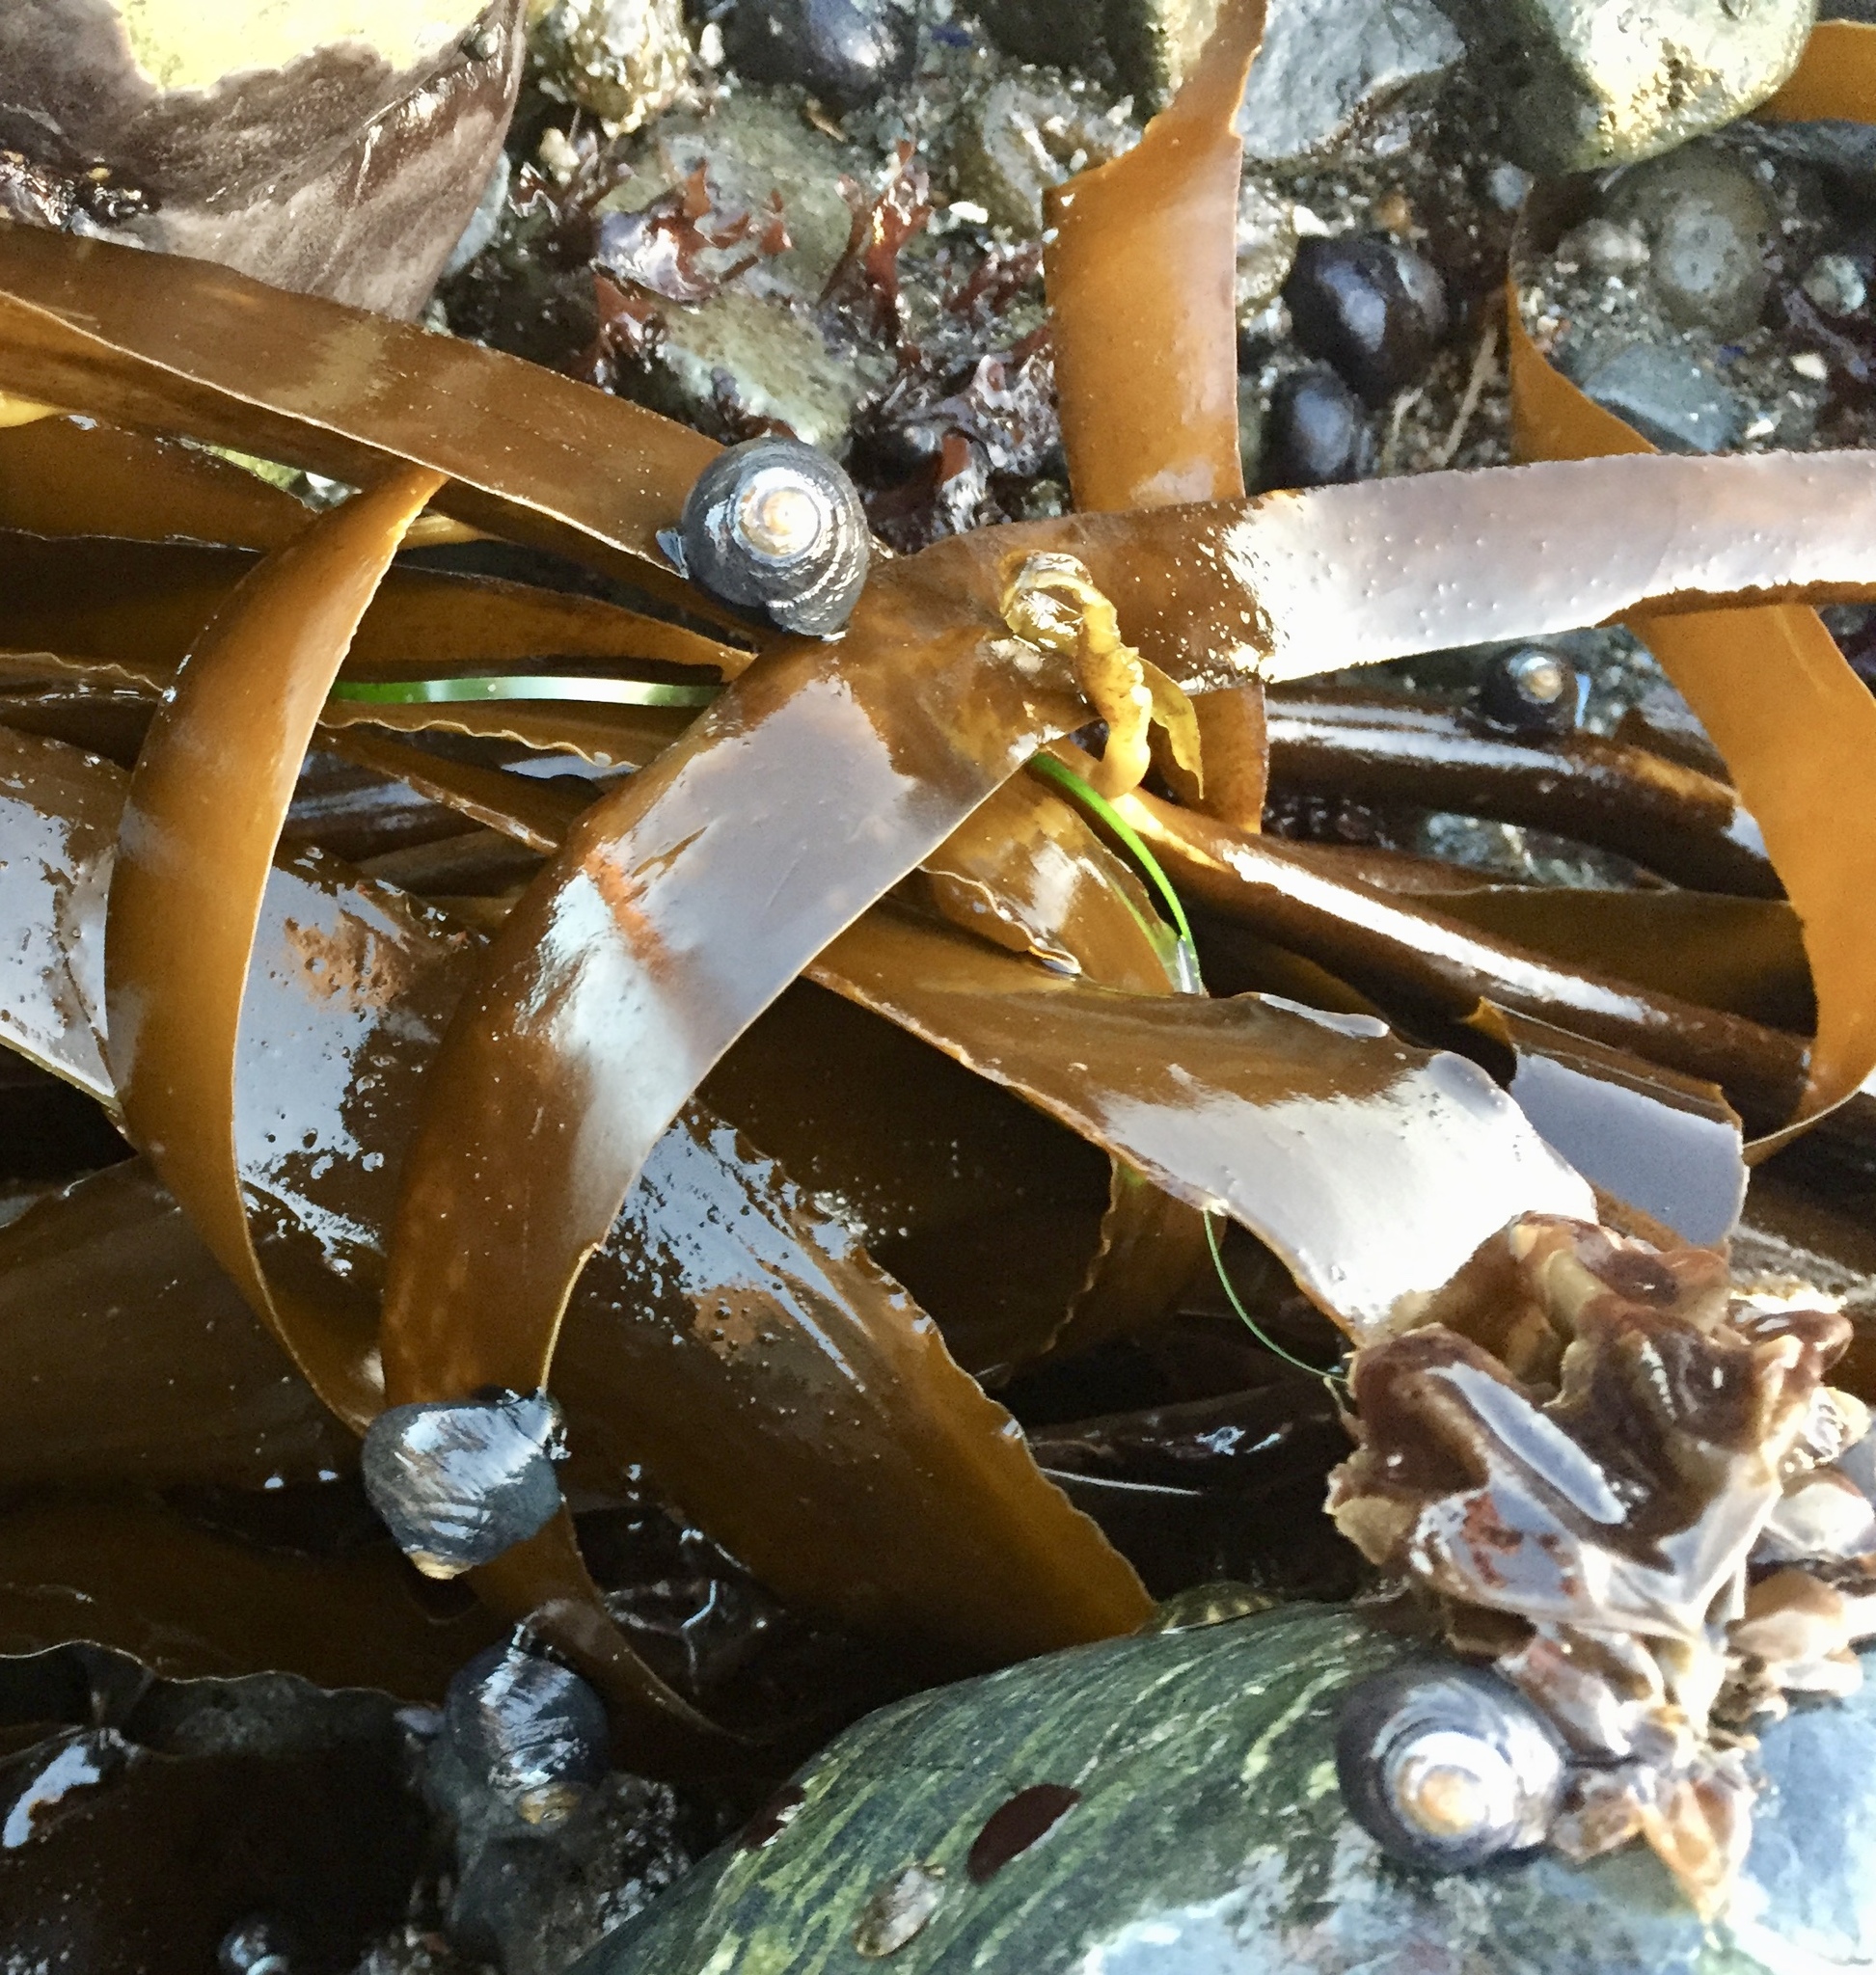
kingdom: Animalia
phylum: Mollusca
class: Gastropoda
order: Trochida
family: Tegulidae
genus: Tegula
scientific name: Tegula funebralis
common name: Black tegula
